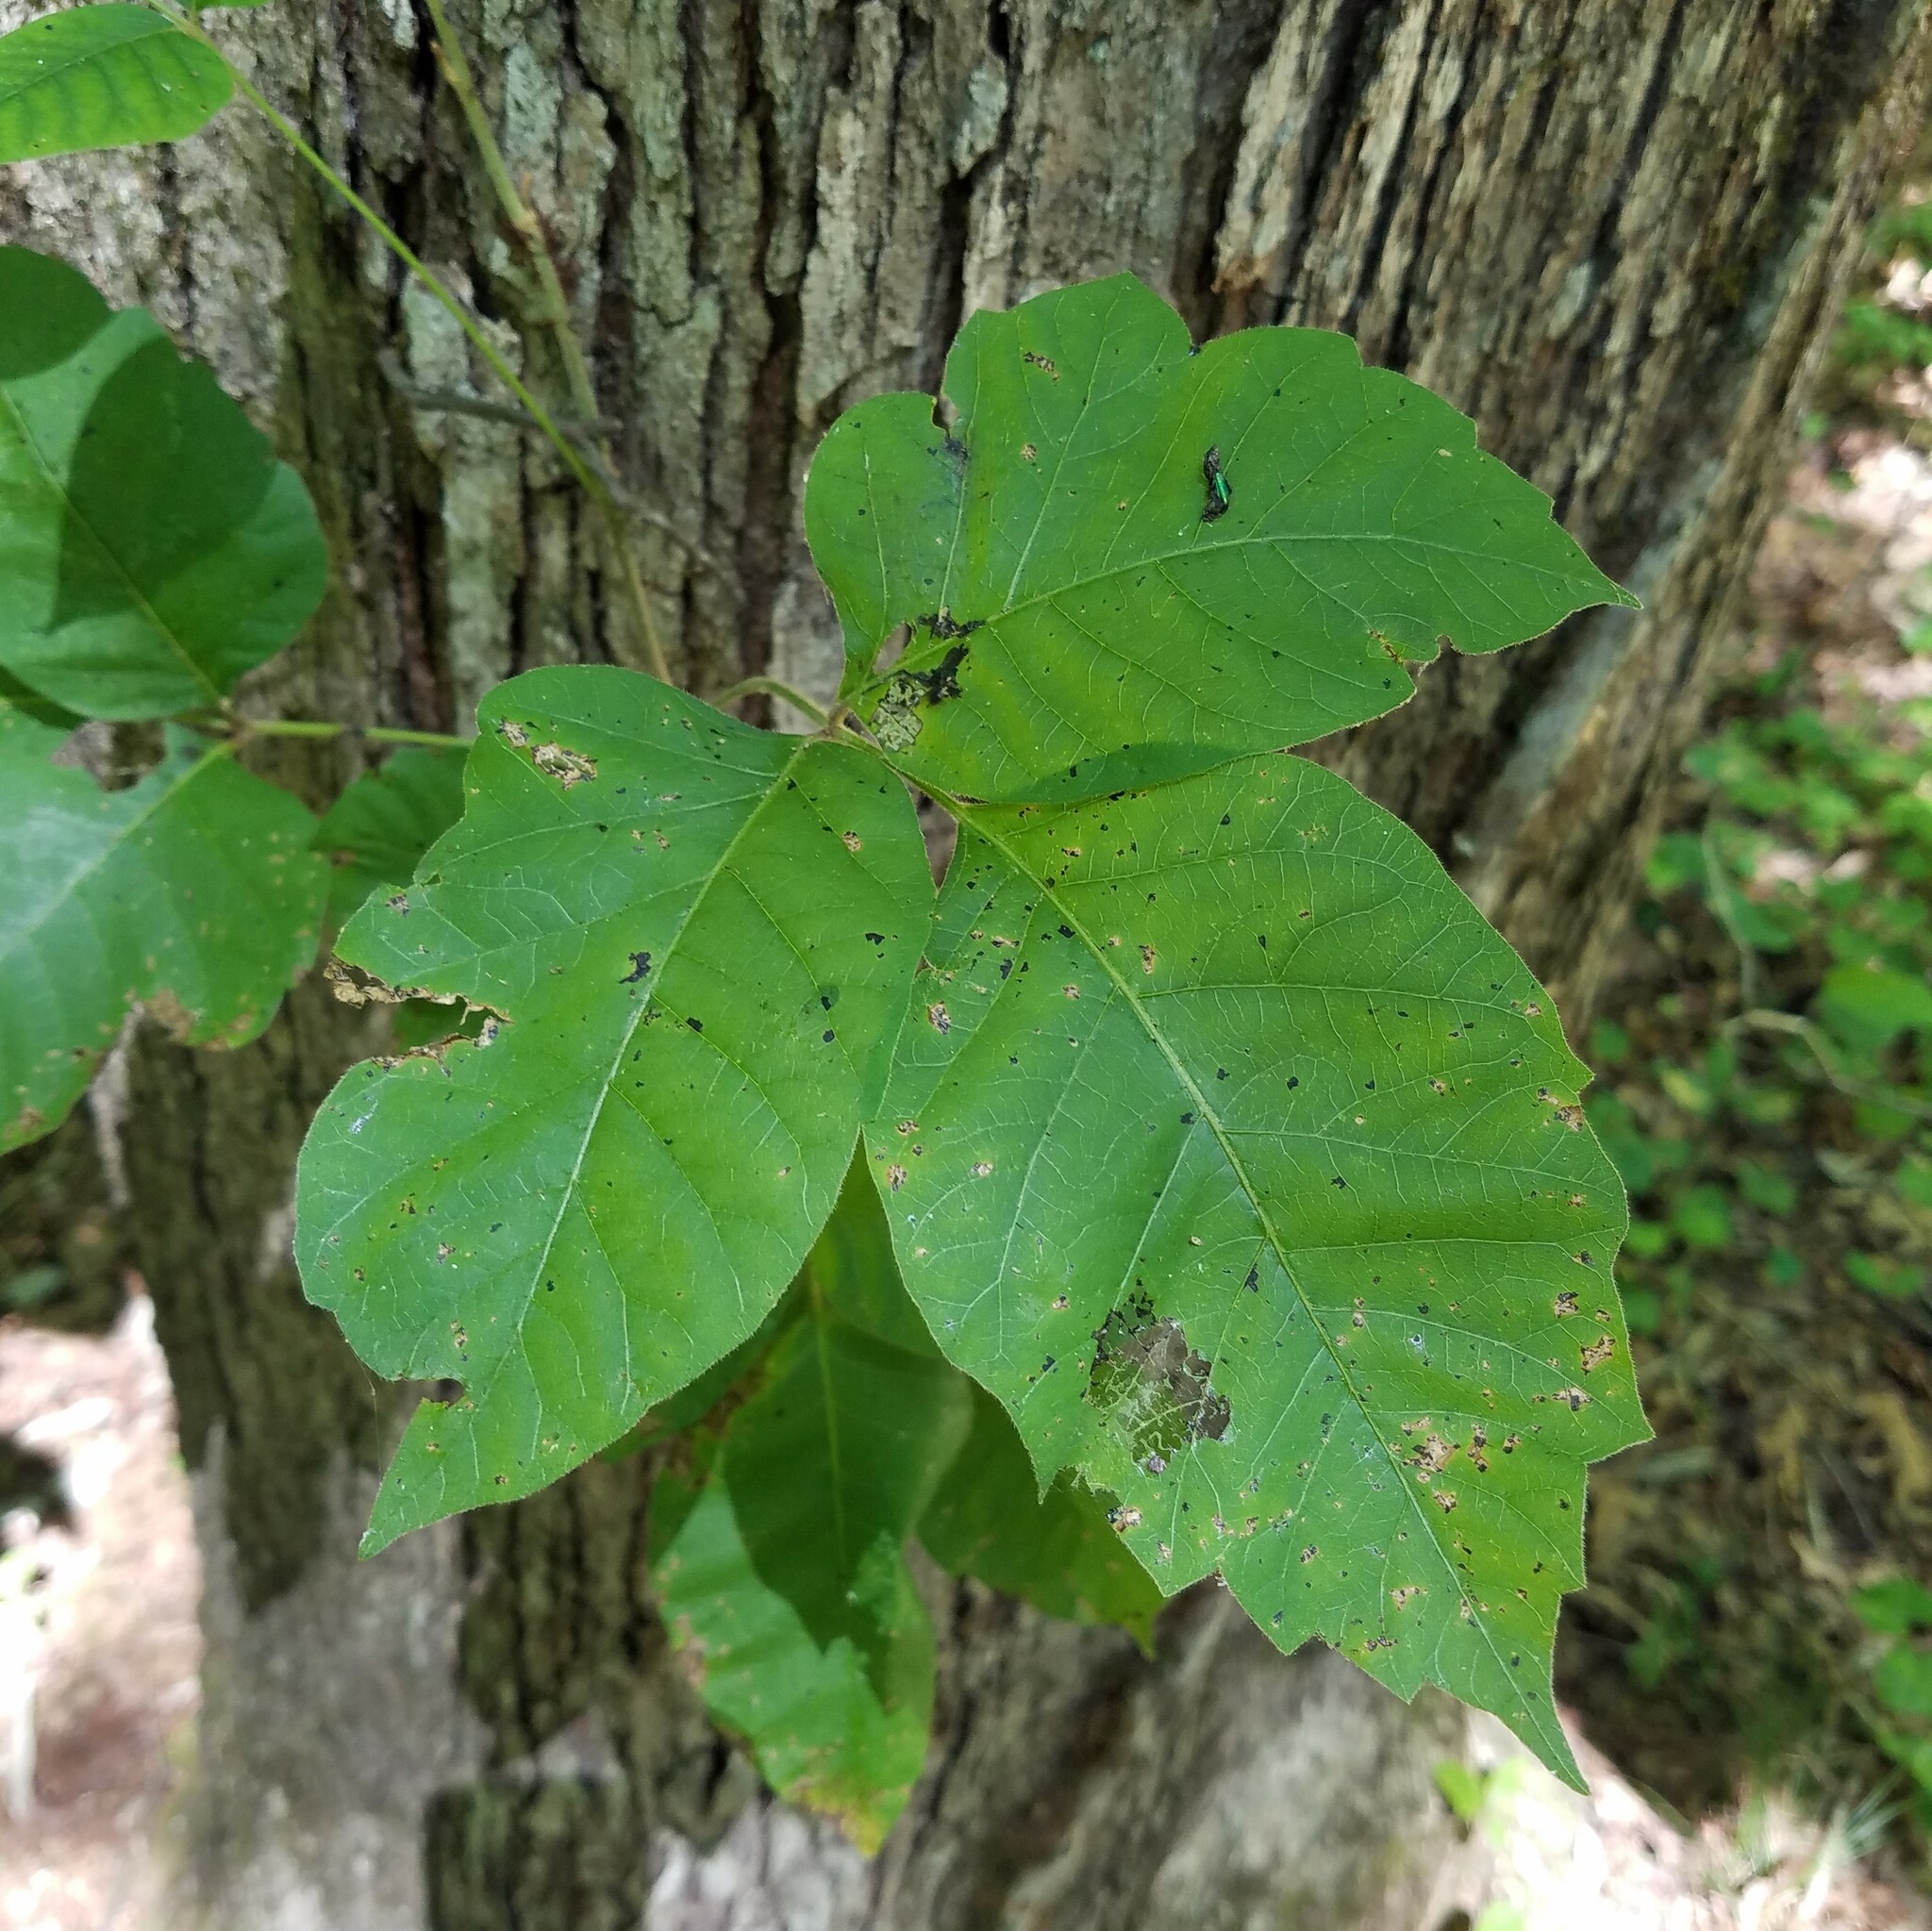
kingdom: Plantae
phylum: Tracheophyta
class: Magnoliopsida
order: Sapindales
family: Anacardiaceae
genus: Toxicodendron
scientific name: Toxicodendron radicans
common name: Poison ivy
